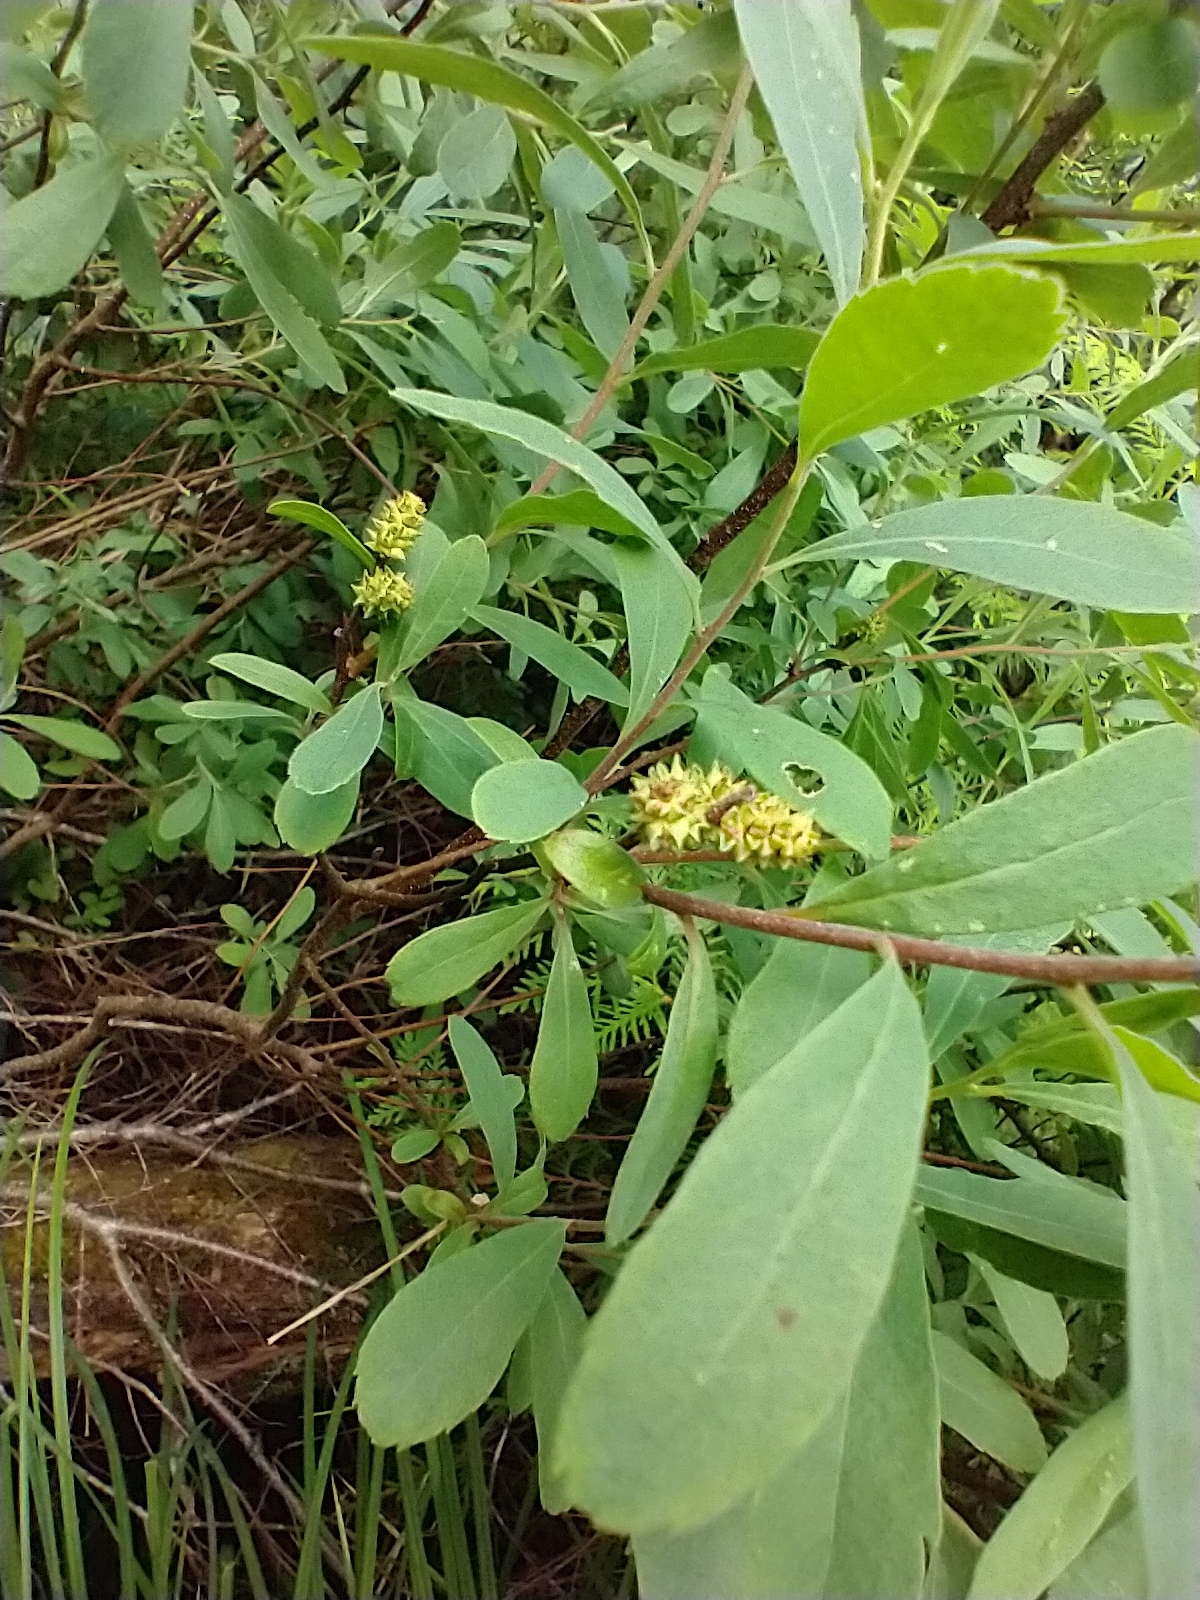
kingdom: Plantae
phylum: Tracheophyta
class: Magnoliopsida
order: Fagales
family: Myricaceae
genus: Myrica
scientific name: Myrica gale
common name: Sweet gale
